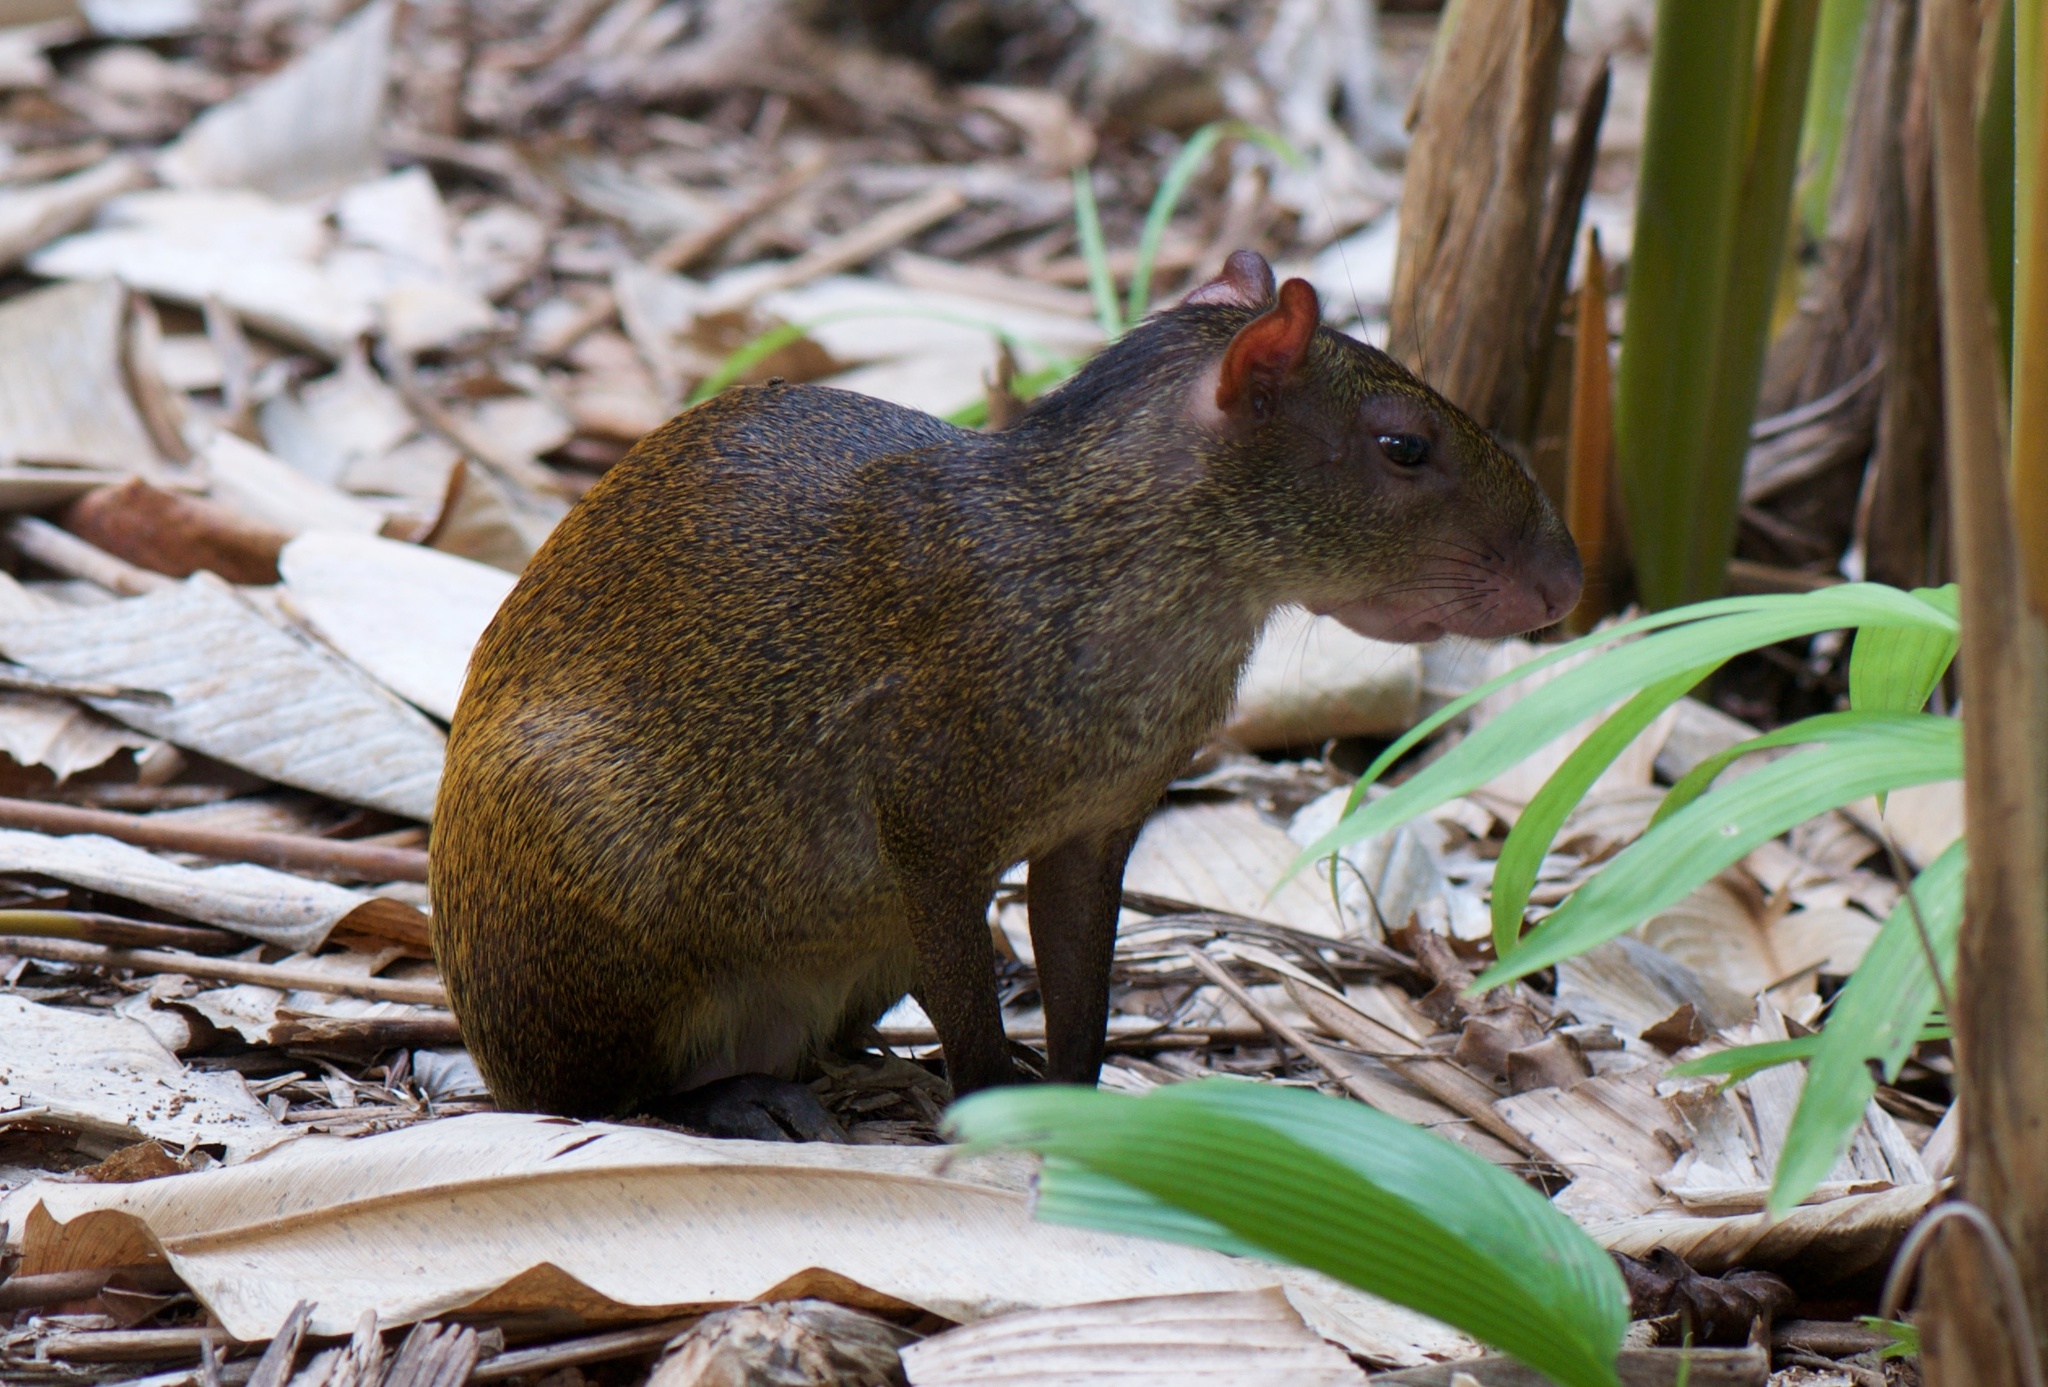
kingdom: Animalia
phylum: Chordata
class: Mammalia
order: Rodentia
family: Dasyproctidae
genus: Dasyprocta
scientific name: Dasyprocta punctata
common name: Central american agouti
